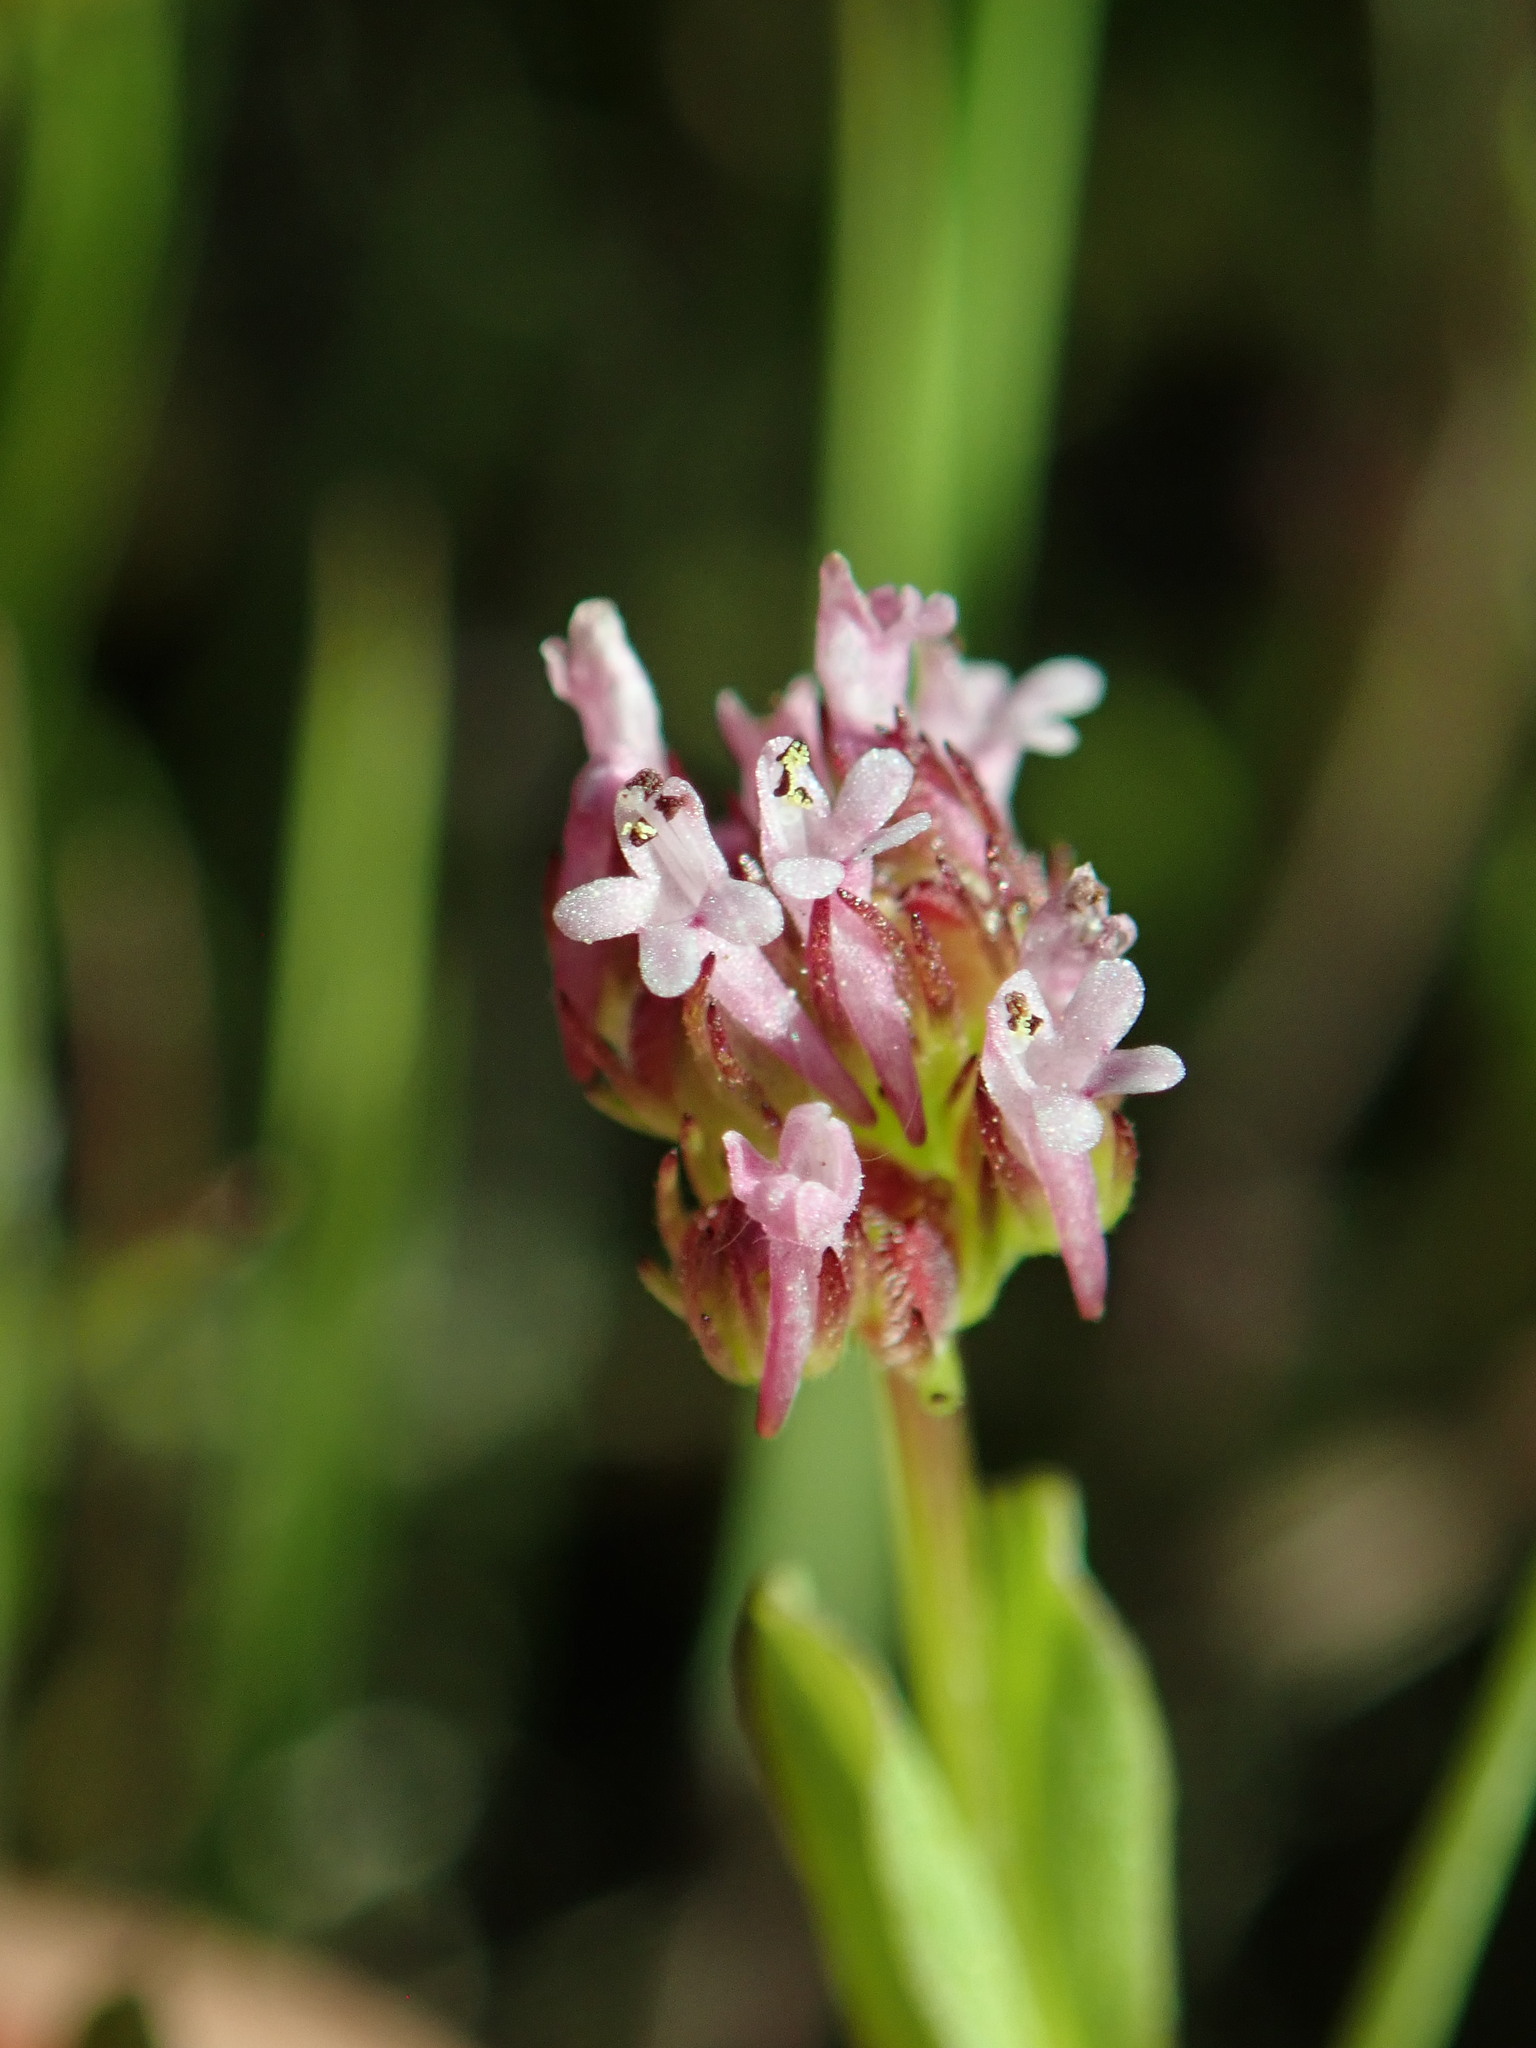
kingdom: Plantae
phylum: Tracheophyta
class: Magnoliopsida
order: Dipsacales
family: Caprifoliaceae
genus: Plectritis
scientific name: Plectritis ciliosa
